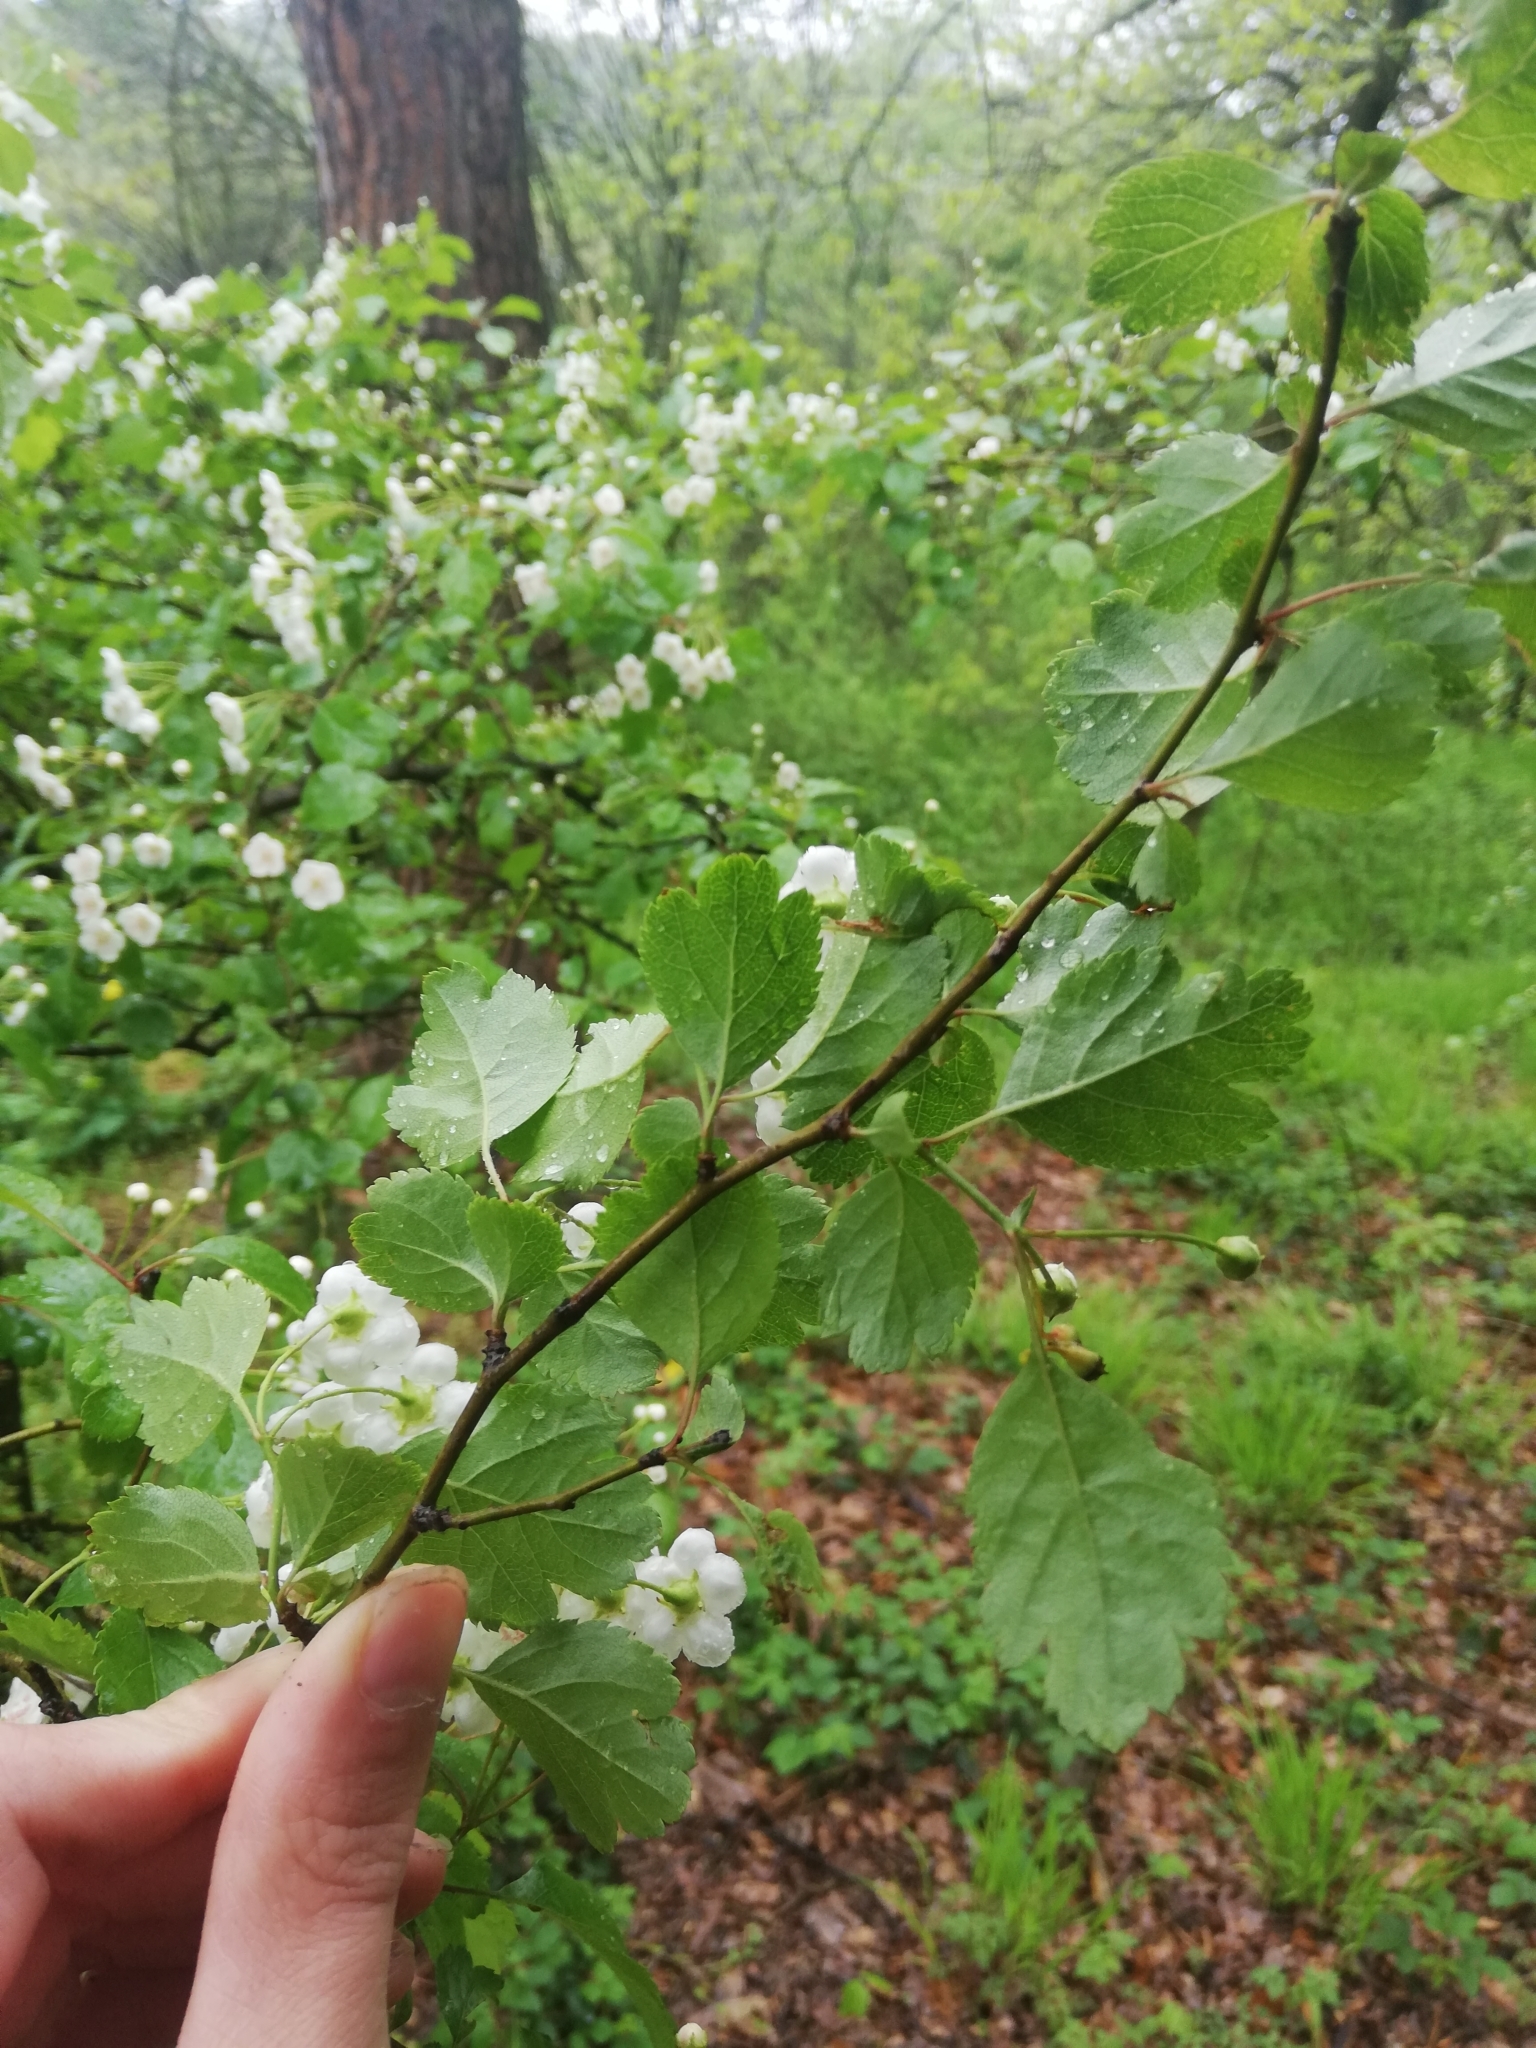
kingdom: Plantae
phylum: Tracheophyta
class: Magnoliopsida
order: Rosales
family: Rosaceae
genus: Crataegus
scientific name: Crataegus laevigata
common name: Midland hawthorn
